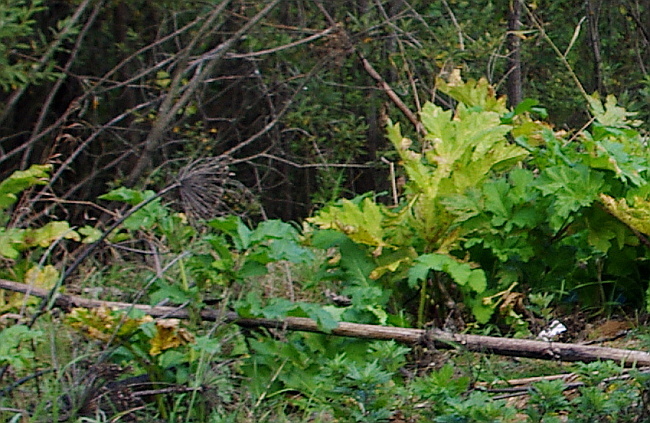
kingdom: Plantae
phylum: Tracheophyta
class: Magnoliopsida
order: Apiales
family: Apiaceae
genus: Heracleum
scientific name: Heracleum sosnowskyi
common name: Sosnowsky's hogweed
